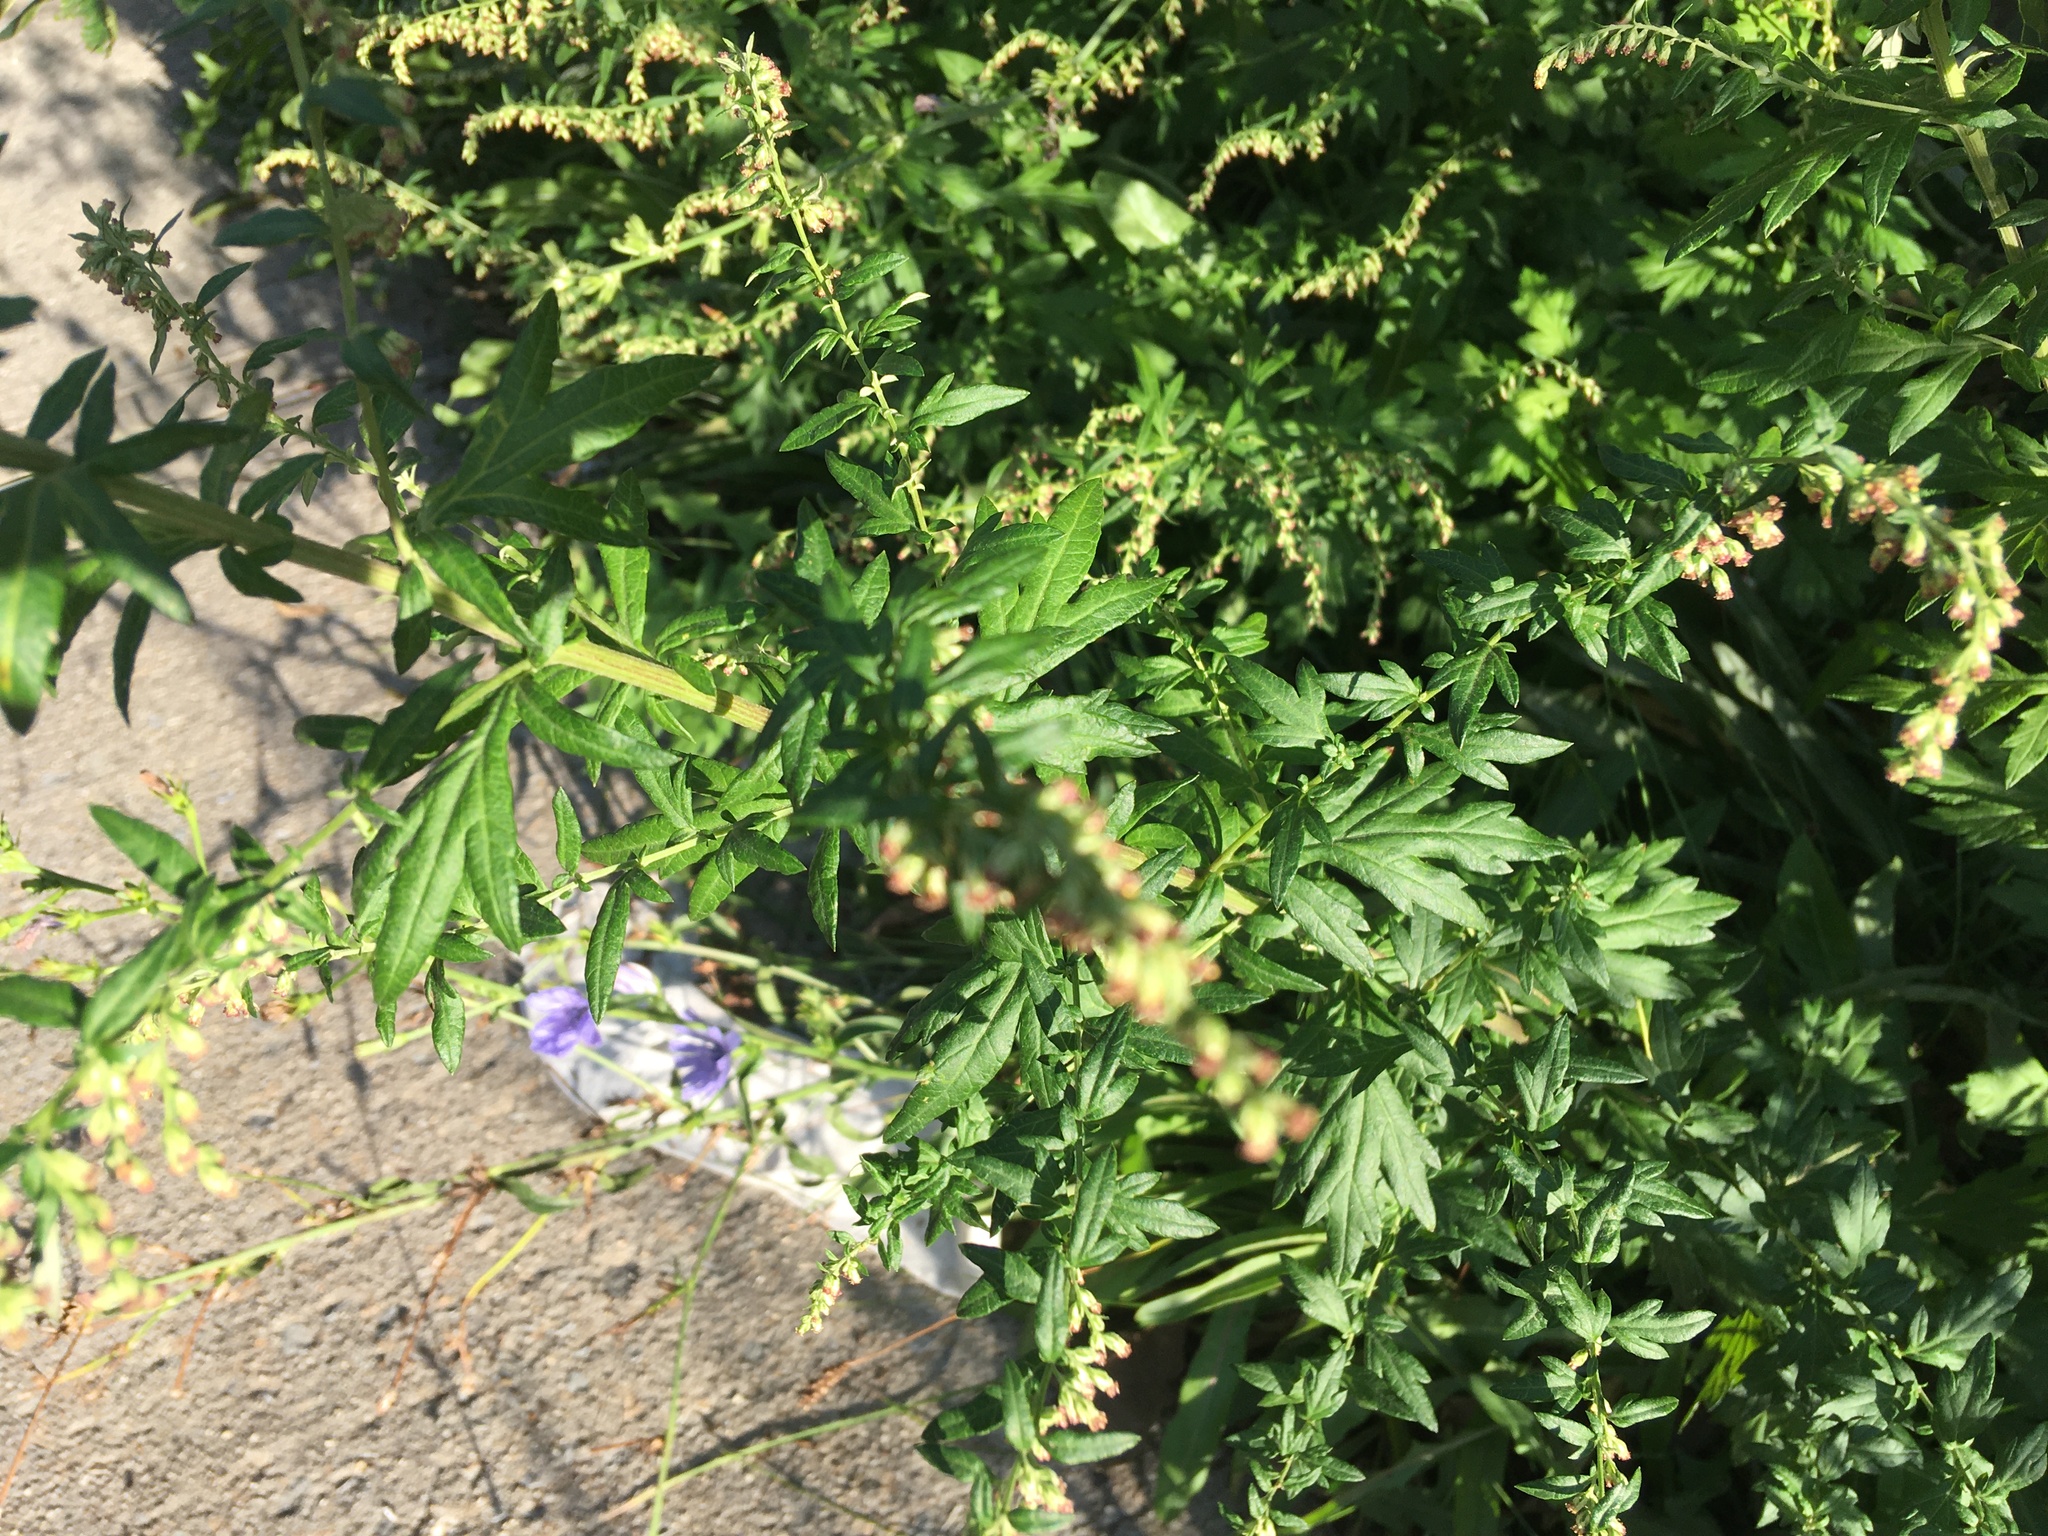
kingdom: Plantae
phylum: Tracheophyta
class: Magnoliopsida
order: Asterales
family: Asteraceae
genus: Artemisia
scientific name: Artemisia vulgaris
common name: Mugwort
